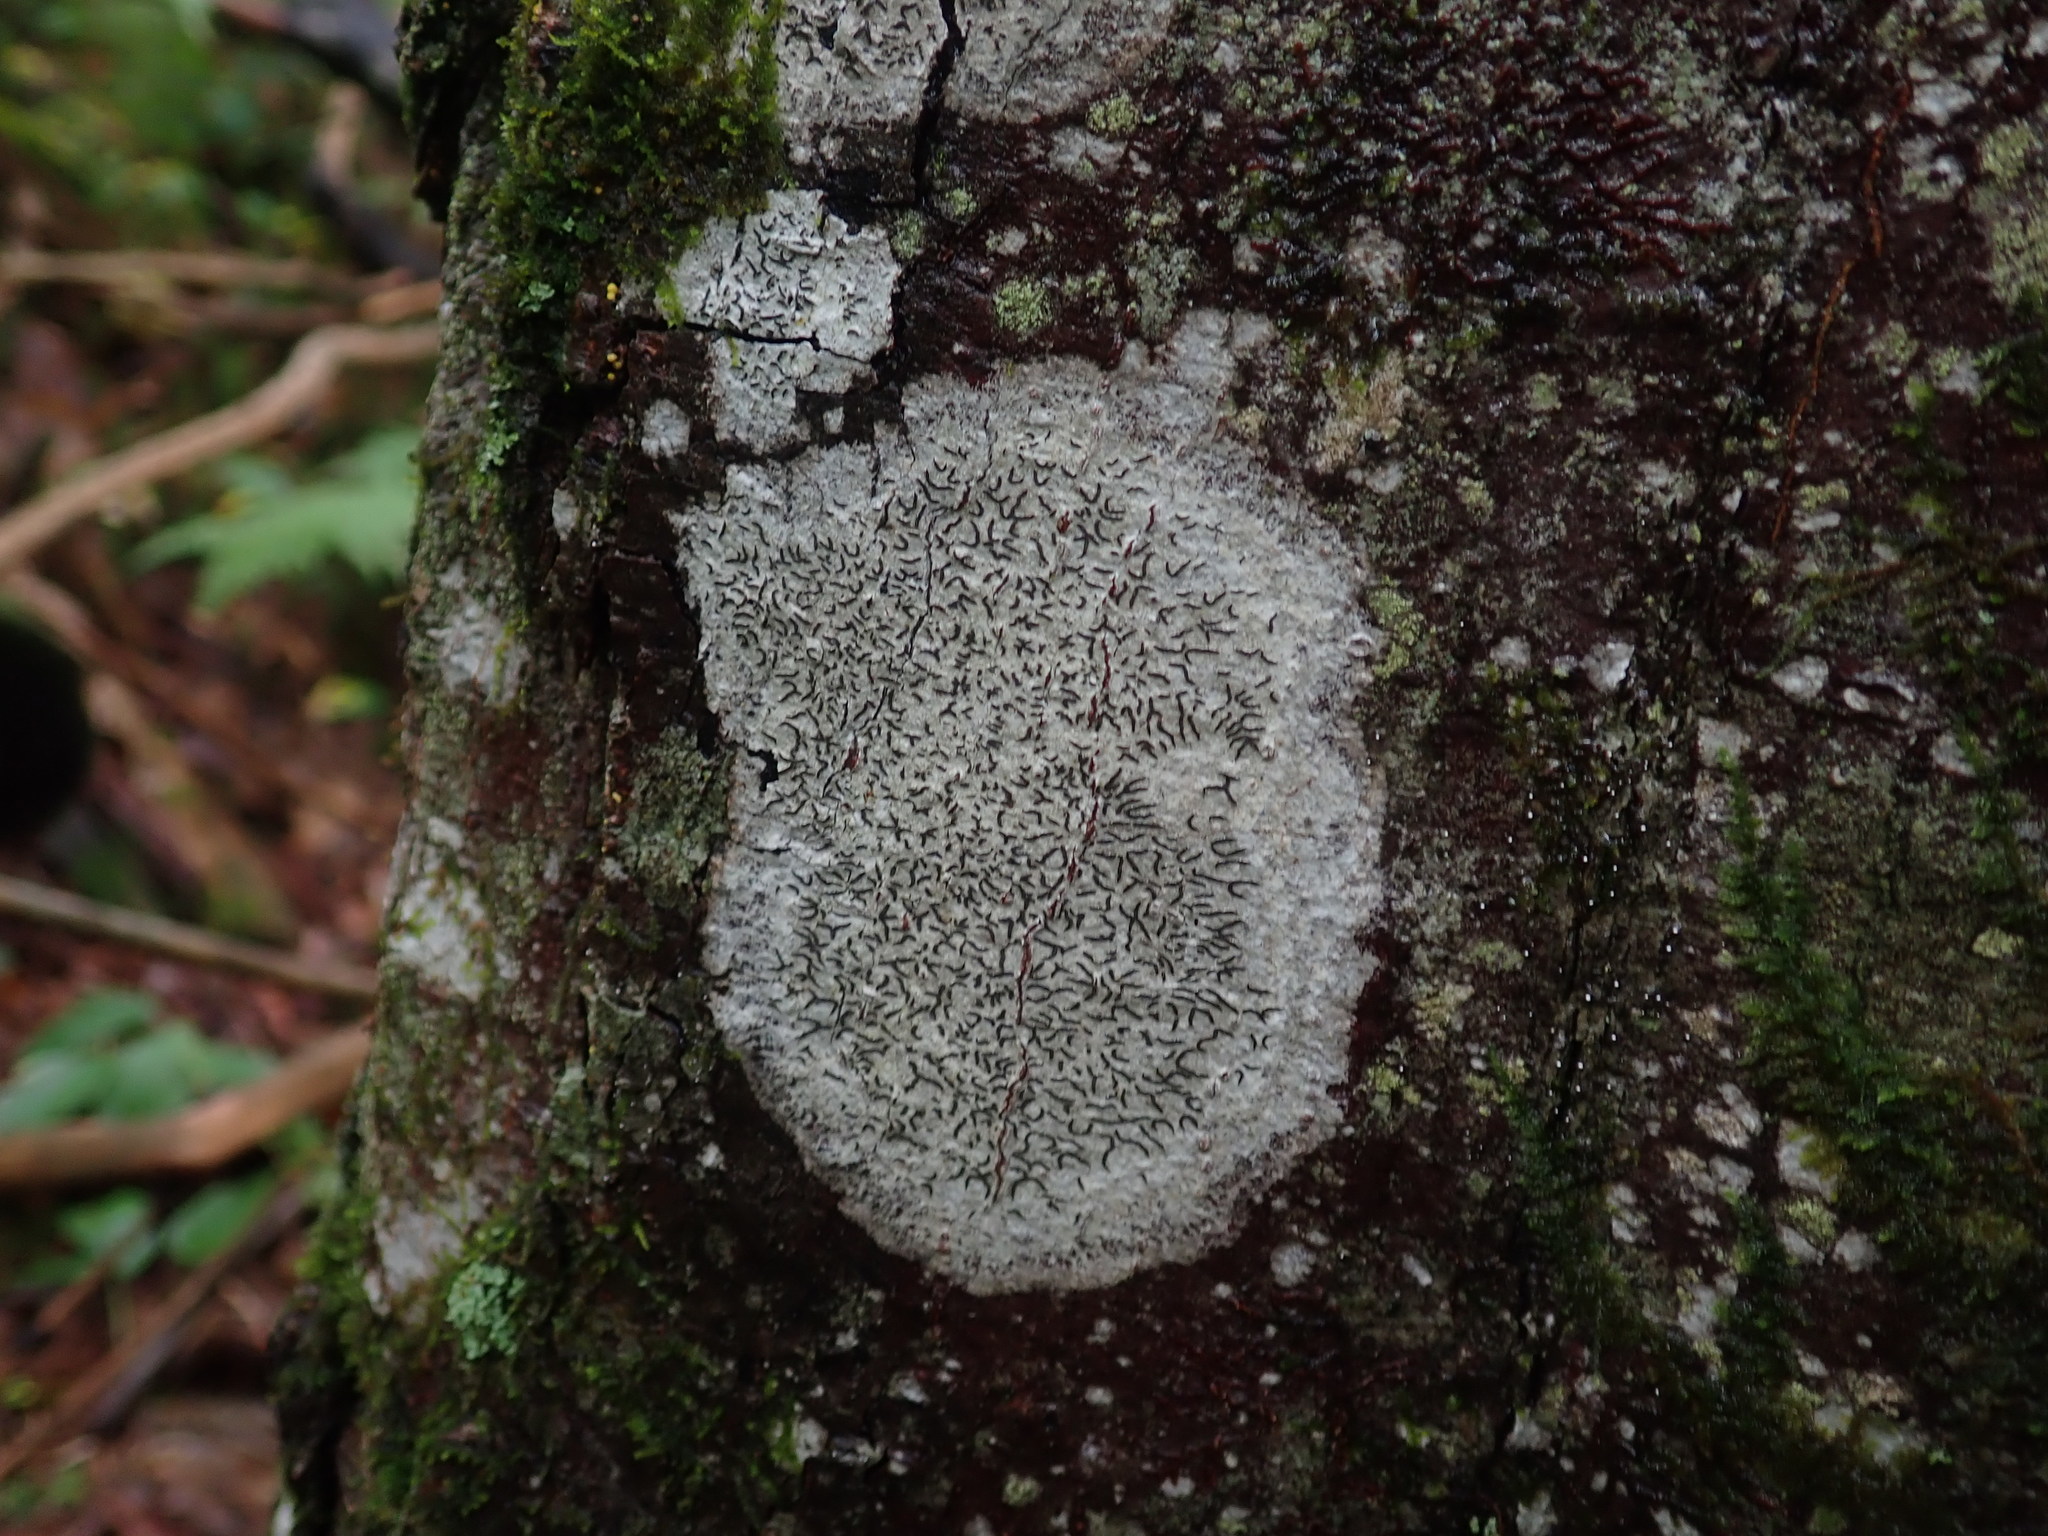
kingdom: Fungi
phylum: Ascomycota
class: Lecanoromycetes
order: Ostropales
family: Graphidaceae
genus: Graphis
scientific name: Graphis scripta
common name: Script lichen
